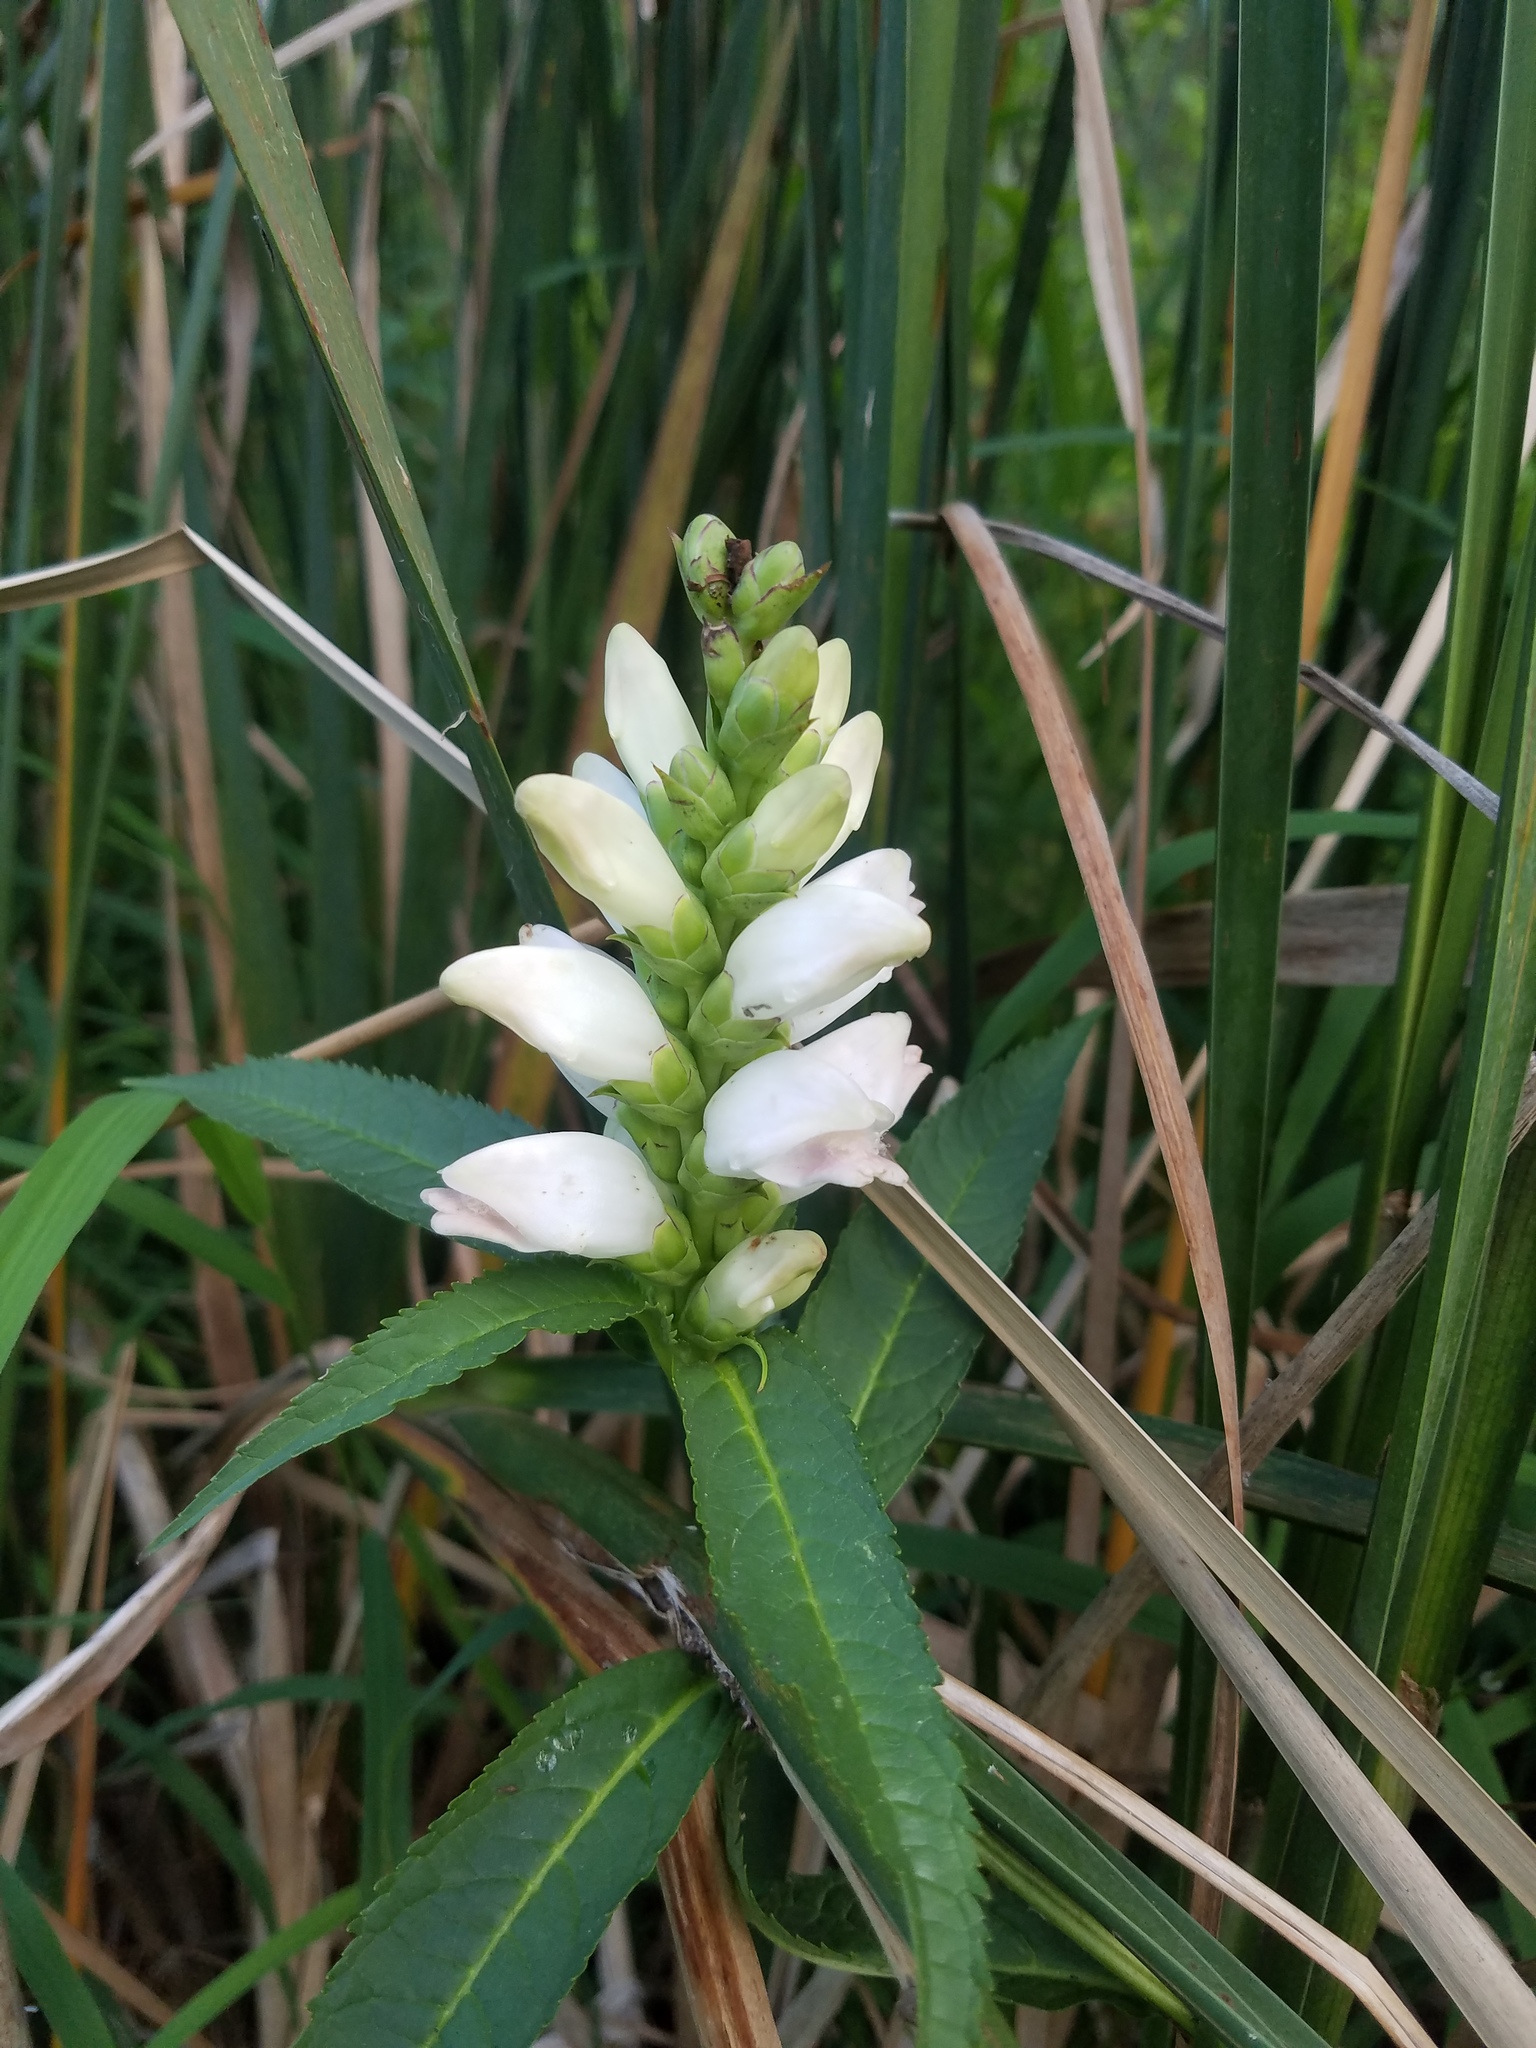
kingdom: Plantae
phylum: Tracheophyta
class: Magnoliopsida
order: Lamiales
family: Plantaginaceae
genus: Chelone
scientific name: Chelone glabra
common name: Snakehead
